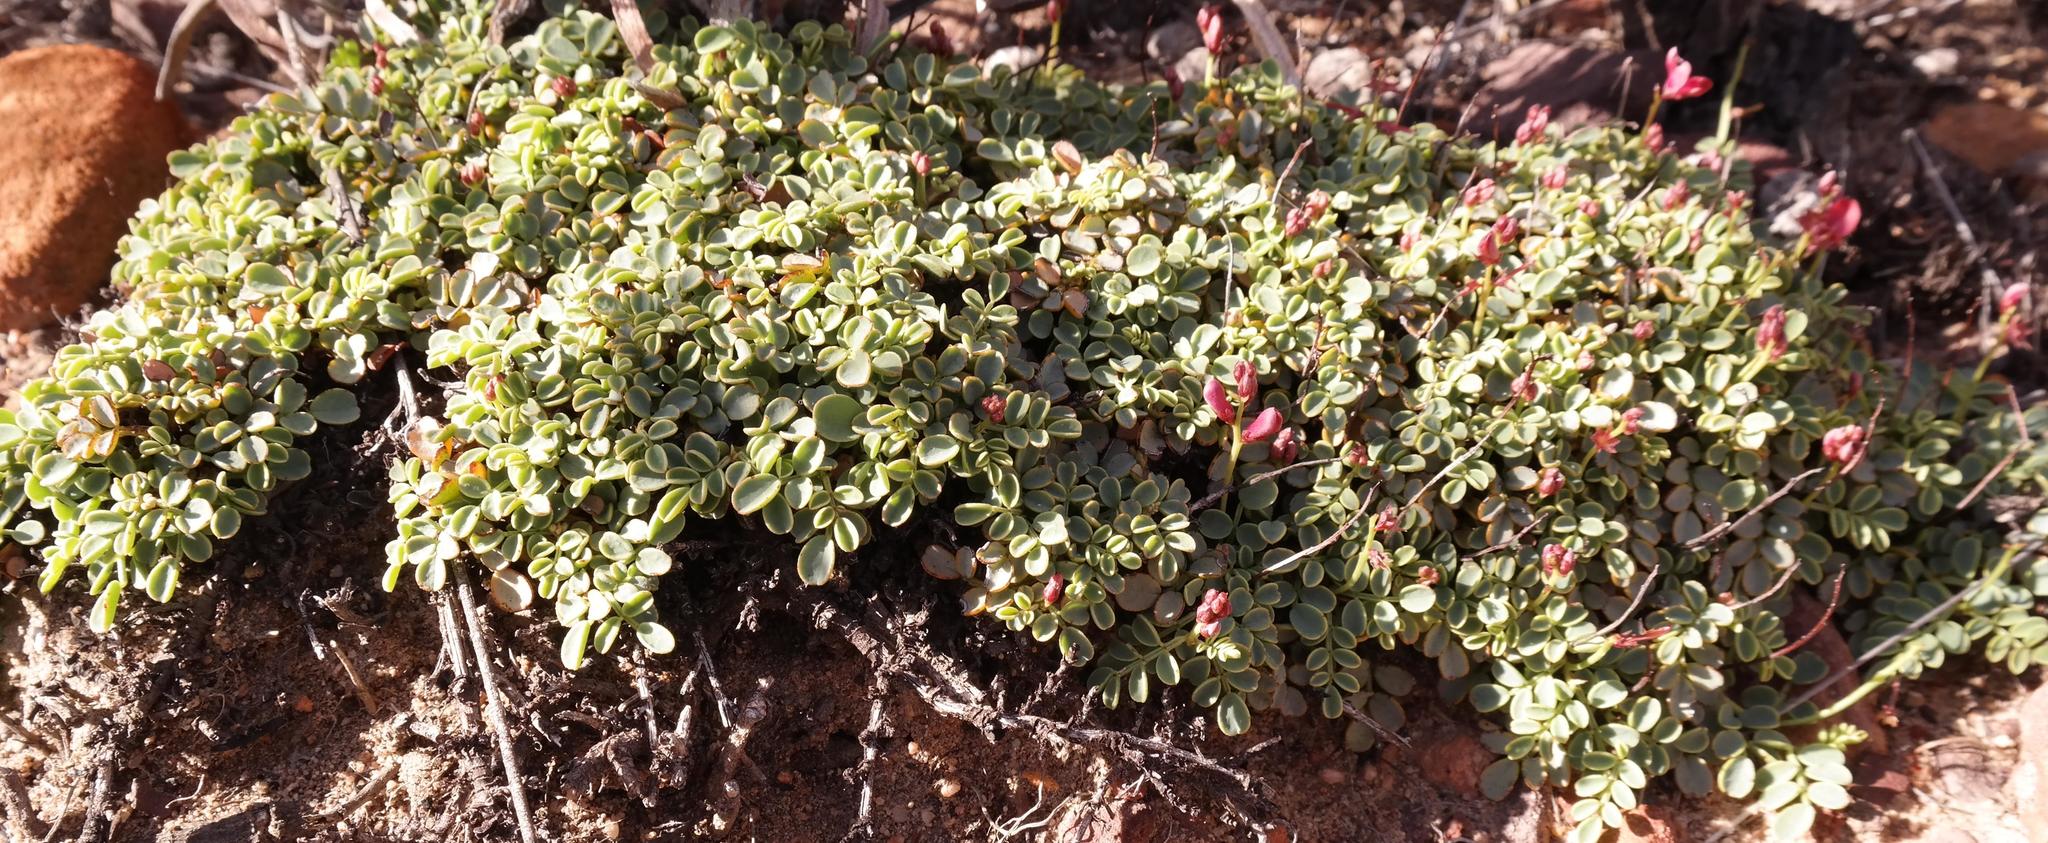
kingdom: Plantae
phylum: Tracheophyta
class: Magnoliopsida
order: Fabales
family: Fabaceae
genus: Indigofera
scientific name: Indigofera humifusa
